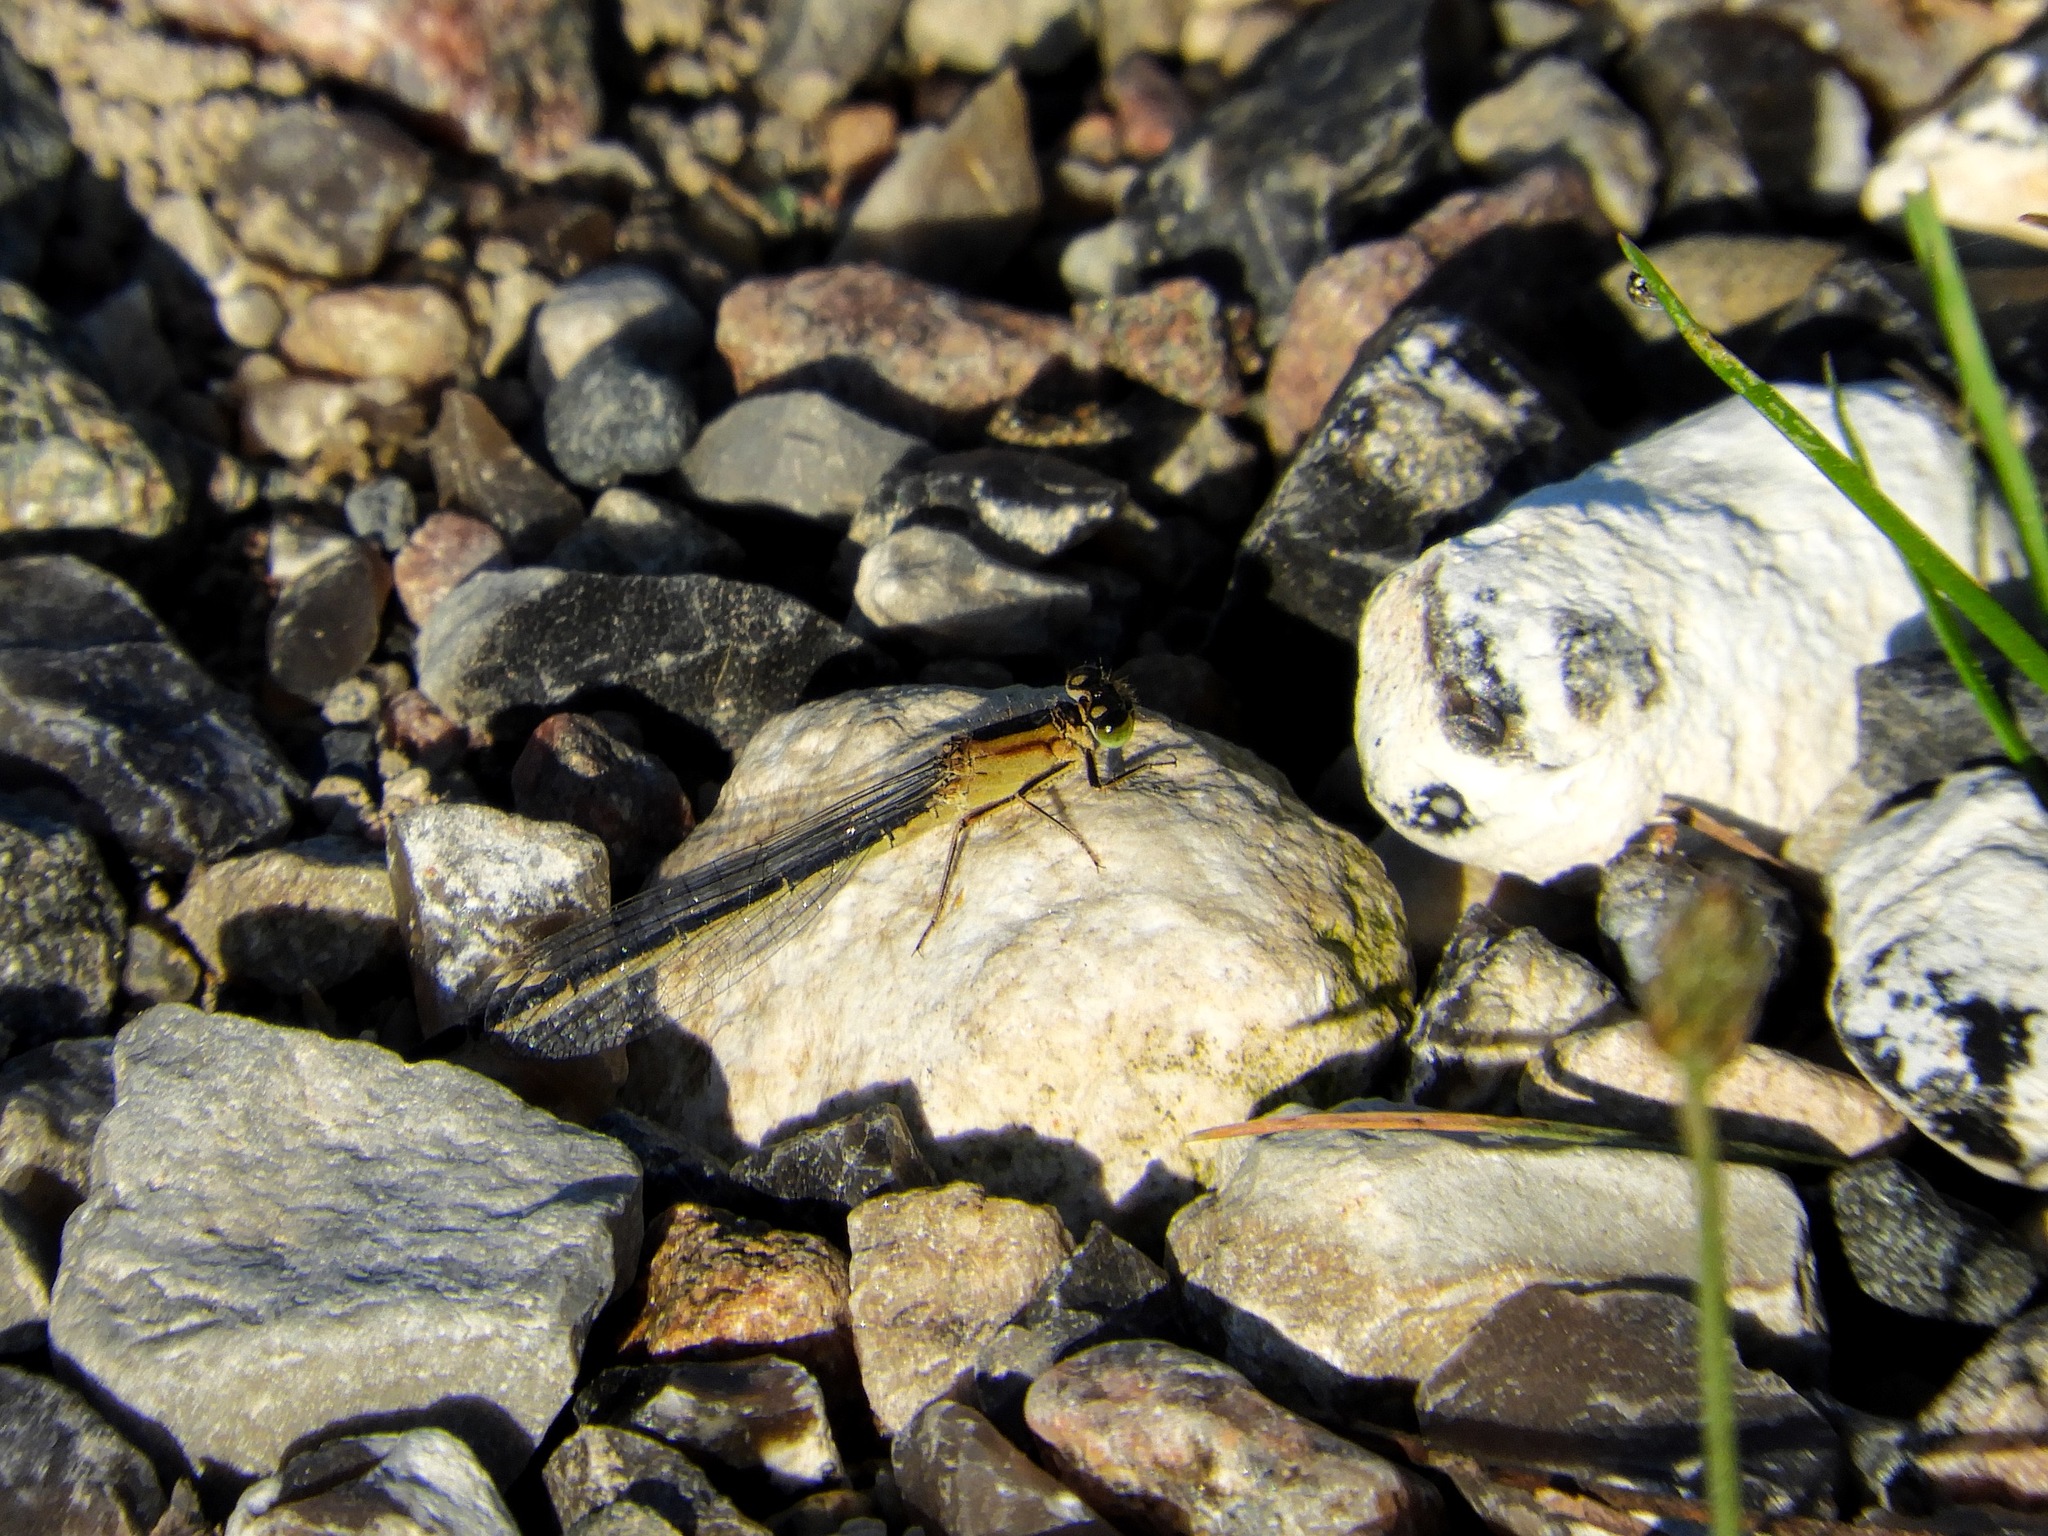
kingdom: Animalia
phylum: Arthropoda
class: Insecta
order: Odonata
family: Coenagrionidae
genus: Ischnura
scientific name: Ischnura elegans
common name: Blue-tailed damselfly
